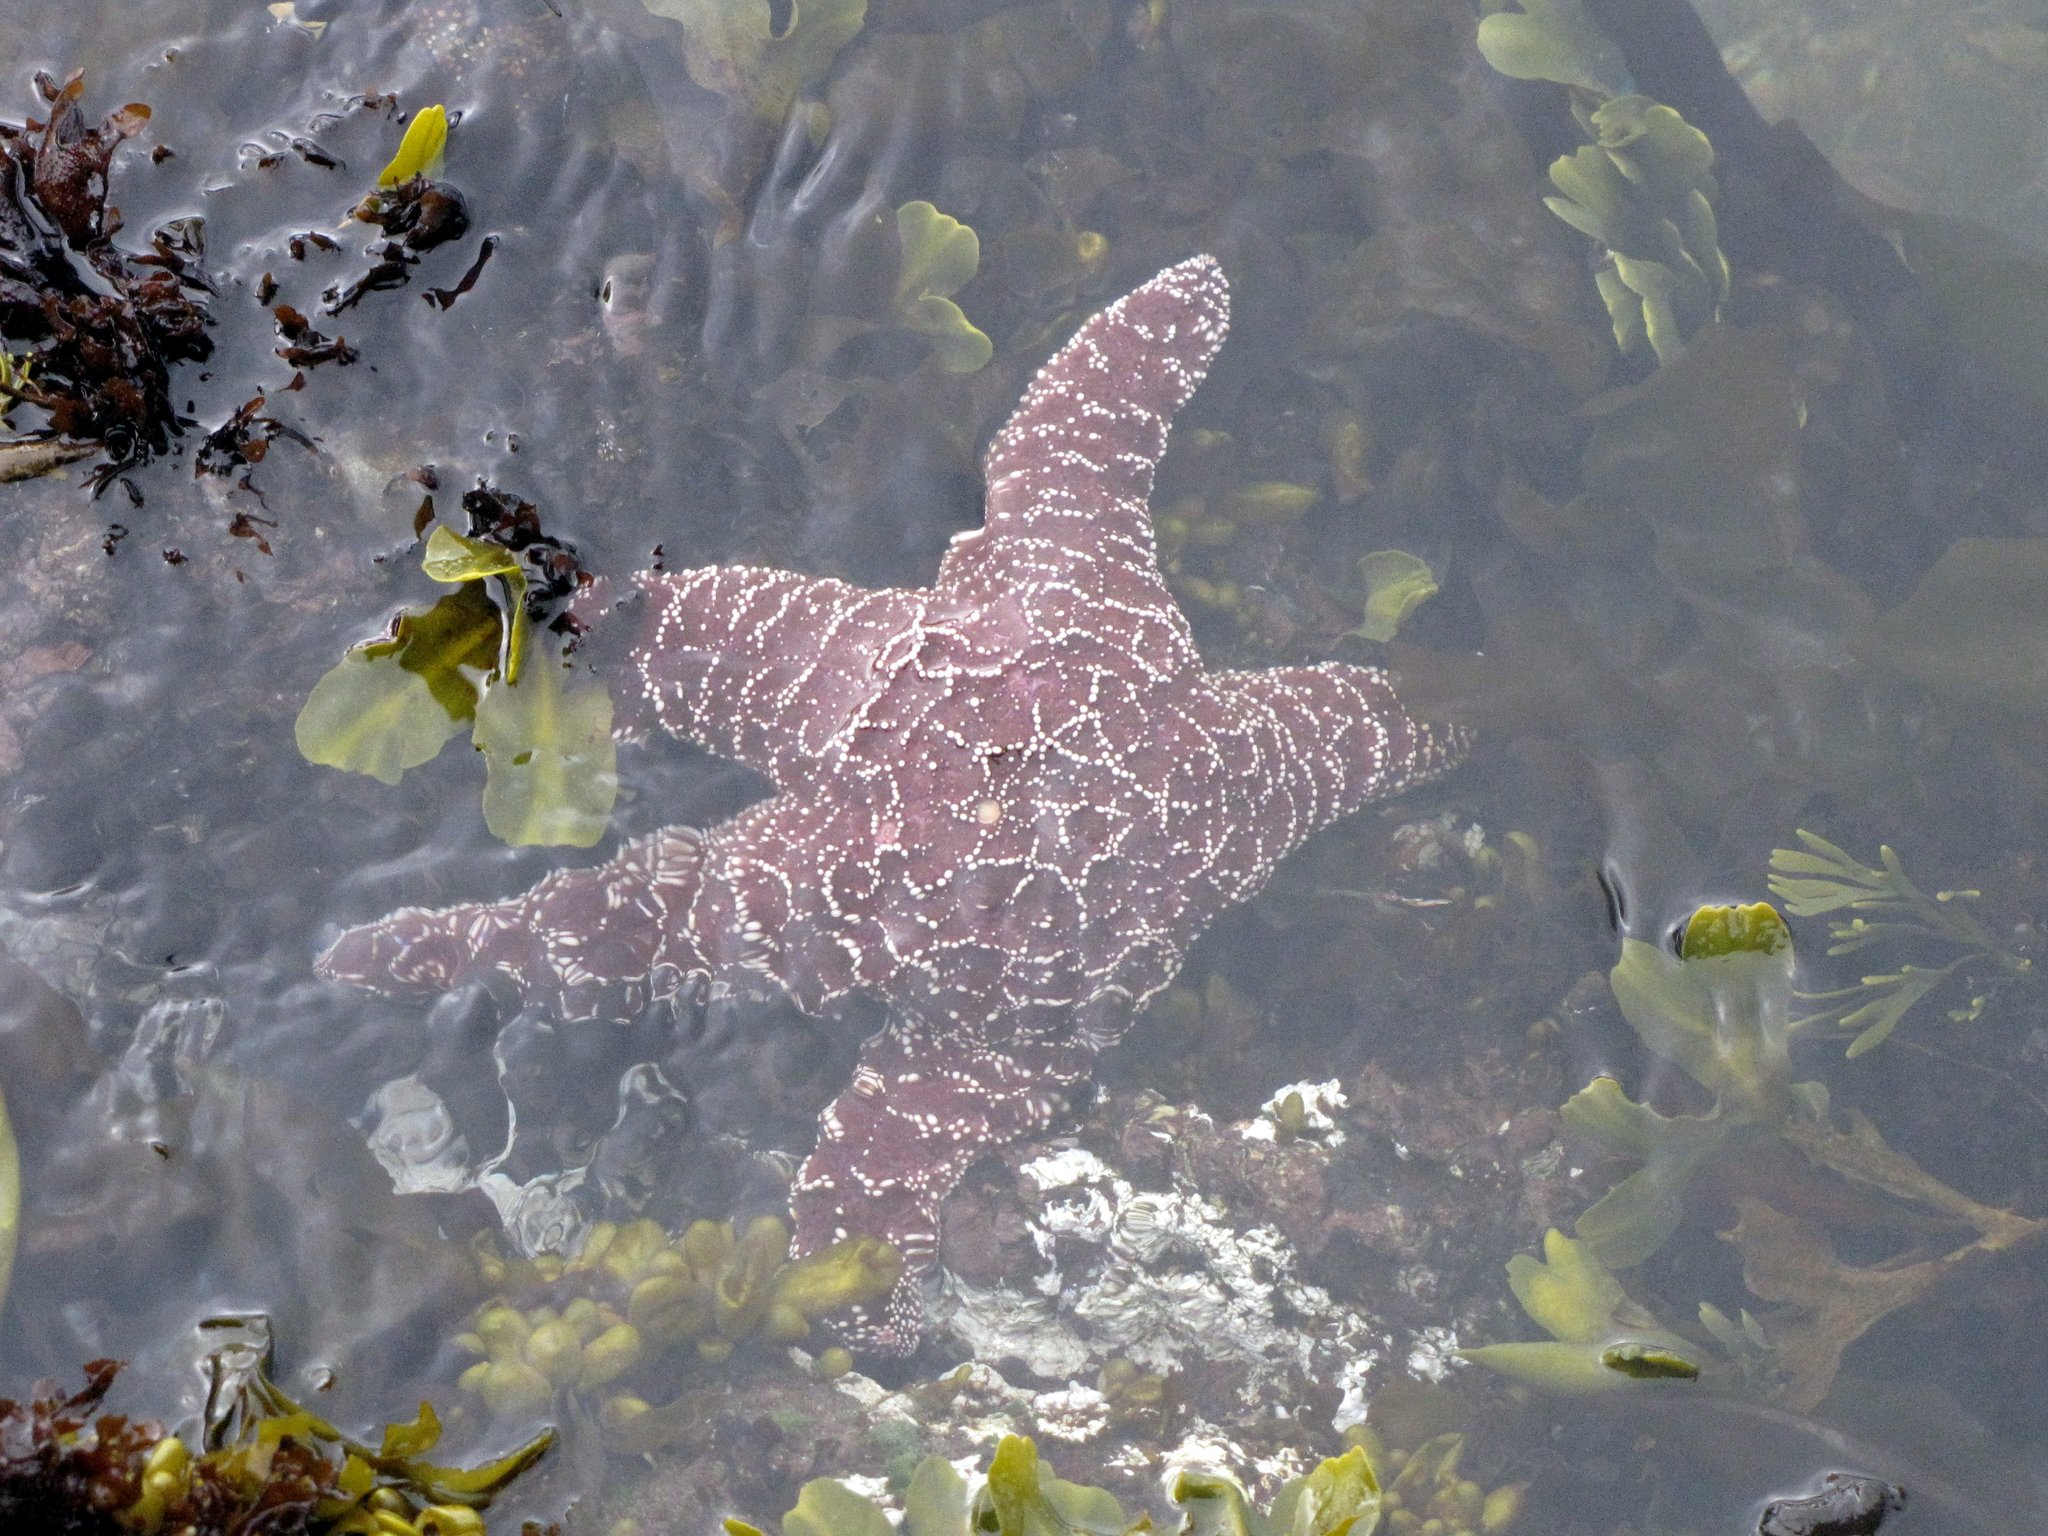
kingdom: Animalia
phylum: Echinodermata
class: Asteroidea
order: Forcipulatida
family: Asteriidae
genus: Pisaster
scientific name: Pisaster ochraceus
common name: Ochre stars
